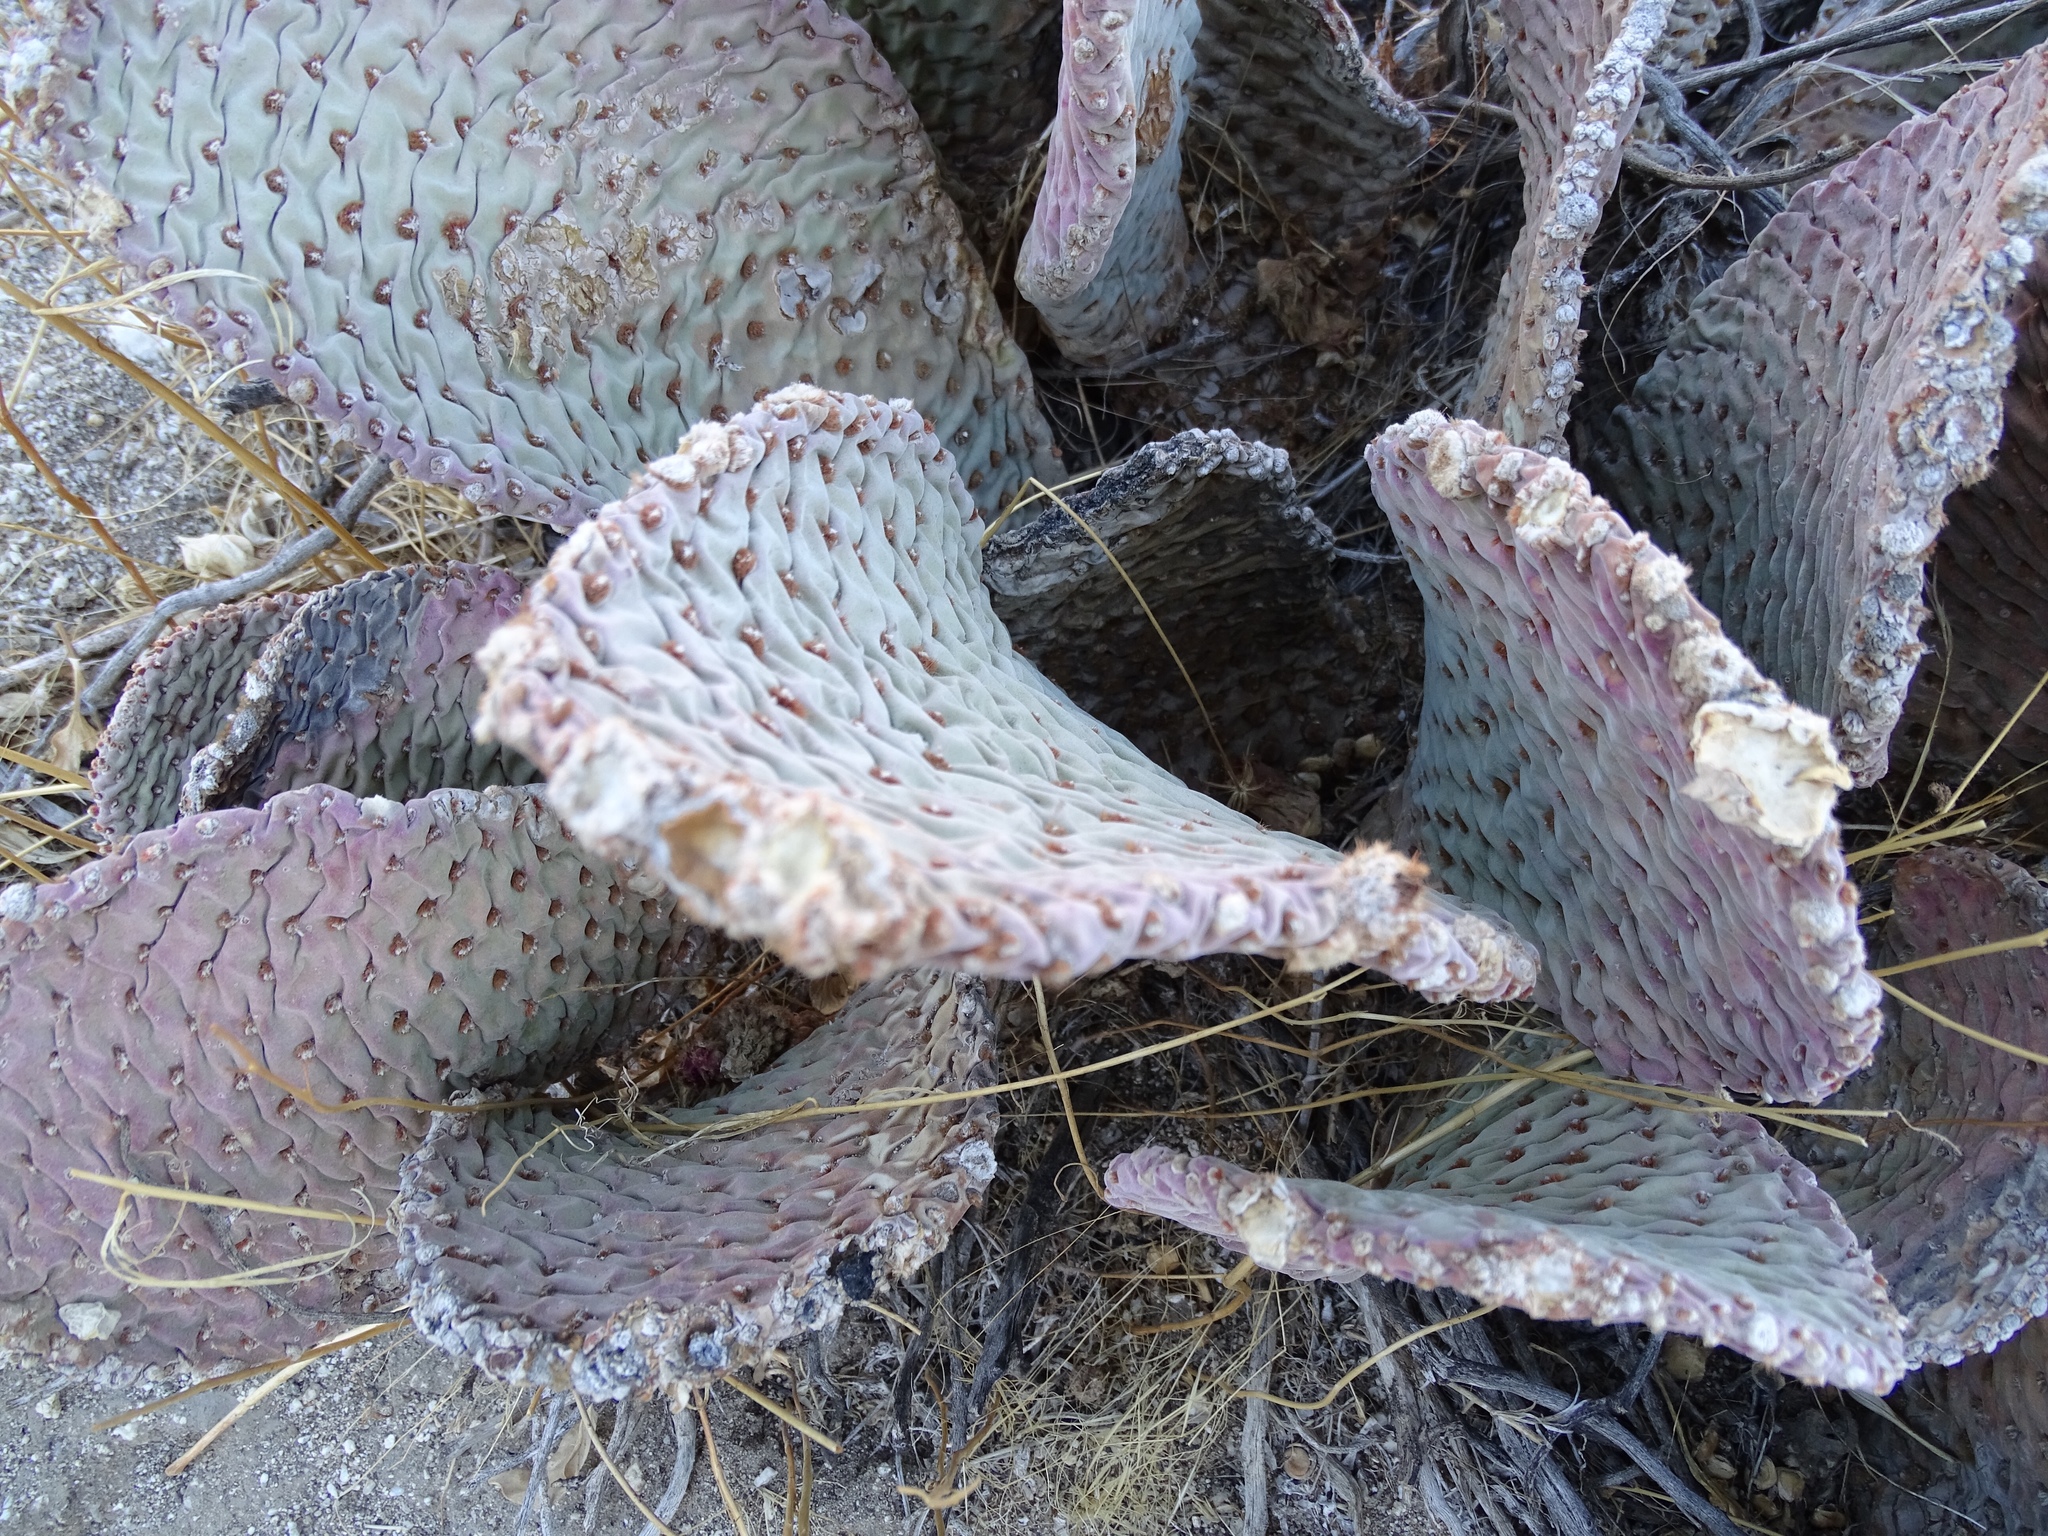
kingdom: Plantae
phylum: Tracheophyta
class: Magnoliopsida
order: Caryophyllales
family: Cactaceae
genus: Opuntia
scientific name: Opuntia basilaris
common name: Beavertail prickly-pear
